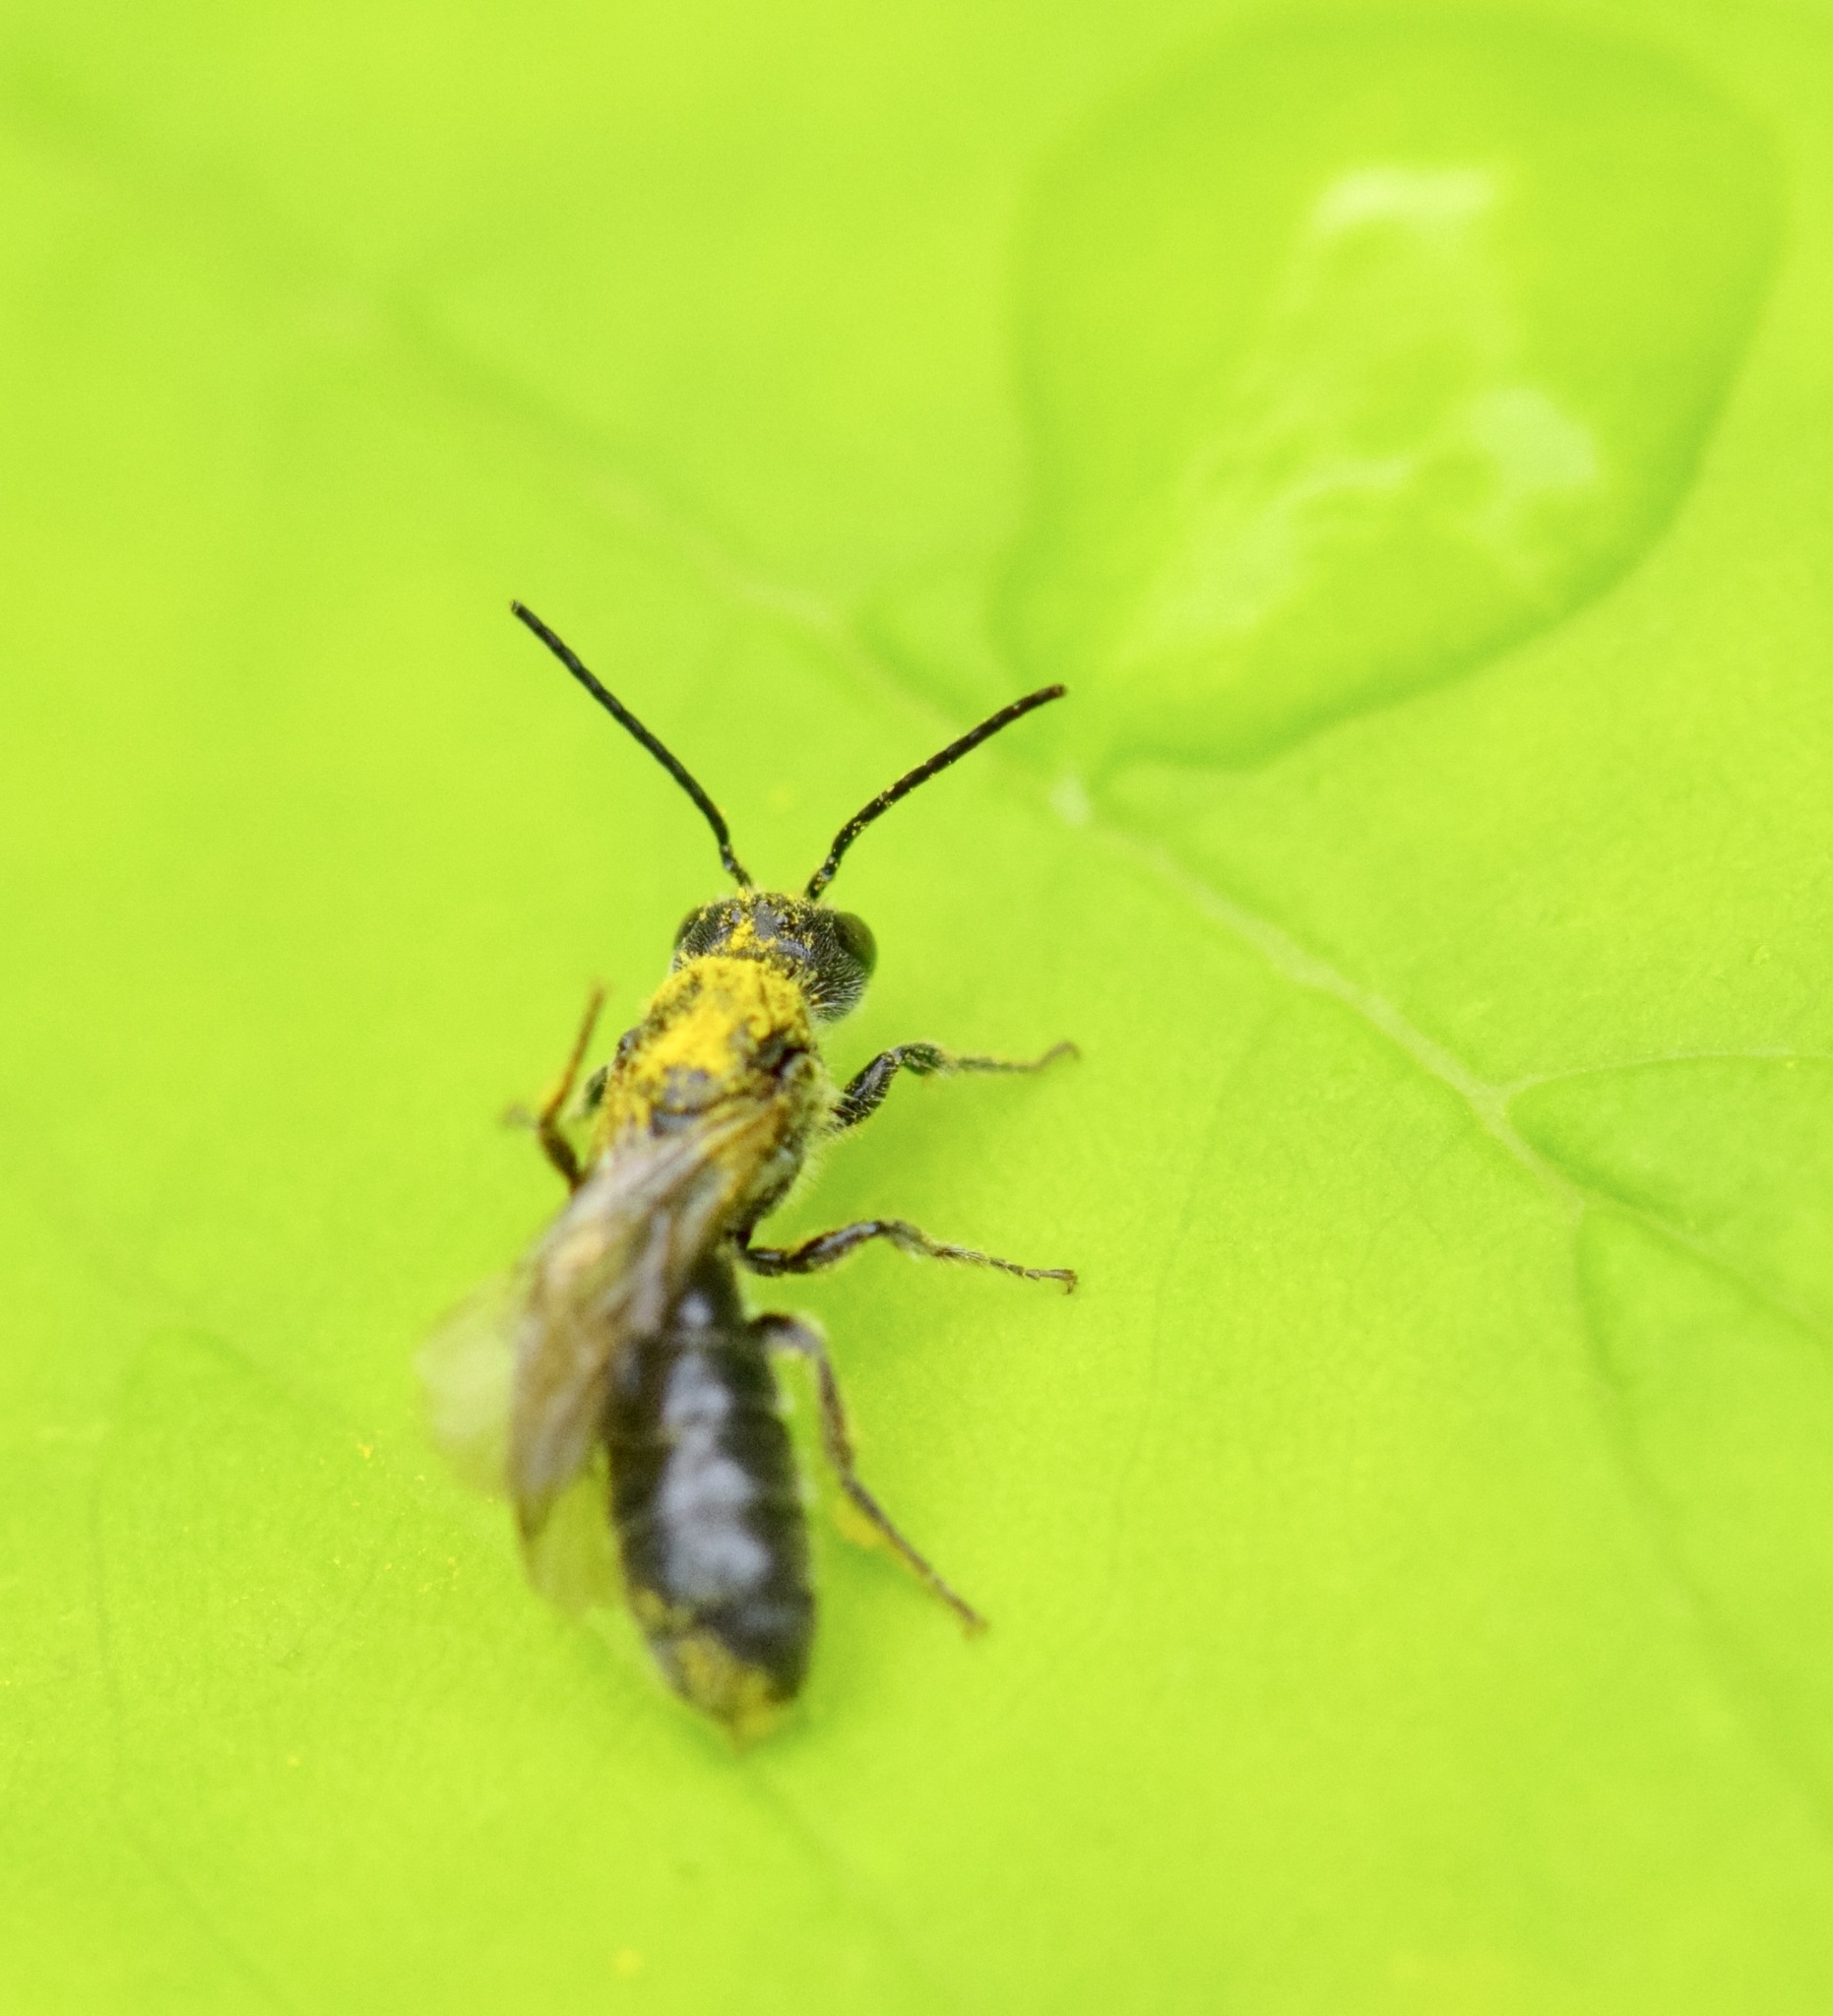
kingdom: Animalia
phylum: Arthropoda
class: Insecta
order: Hymenoptera
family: Megachilidae
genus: Chelostoma
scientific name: Chelostoma philadelphi
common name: Mock-orange scissor bee
